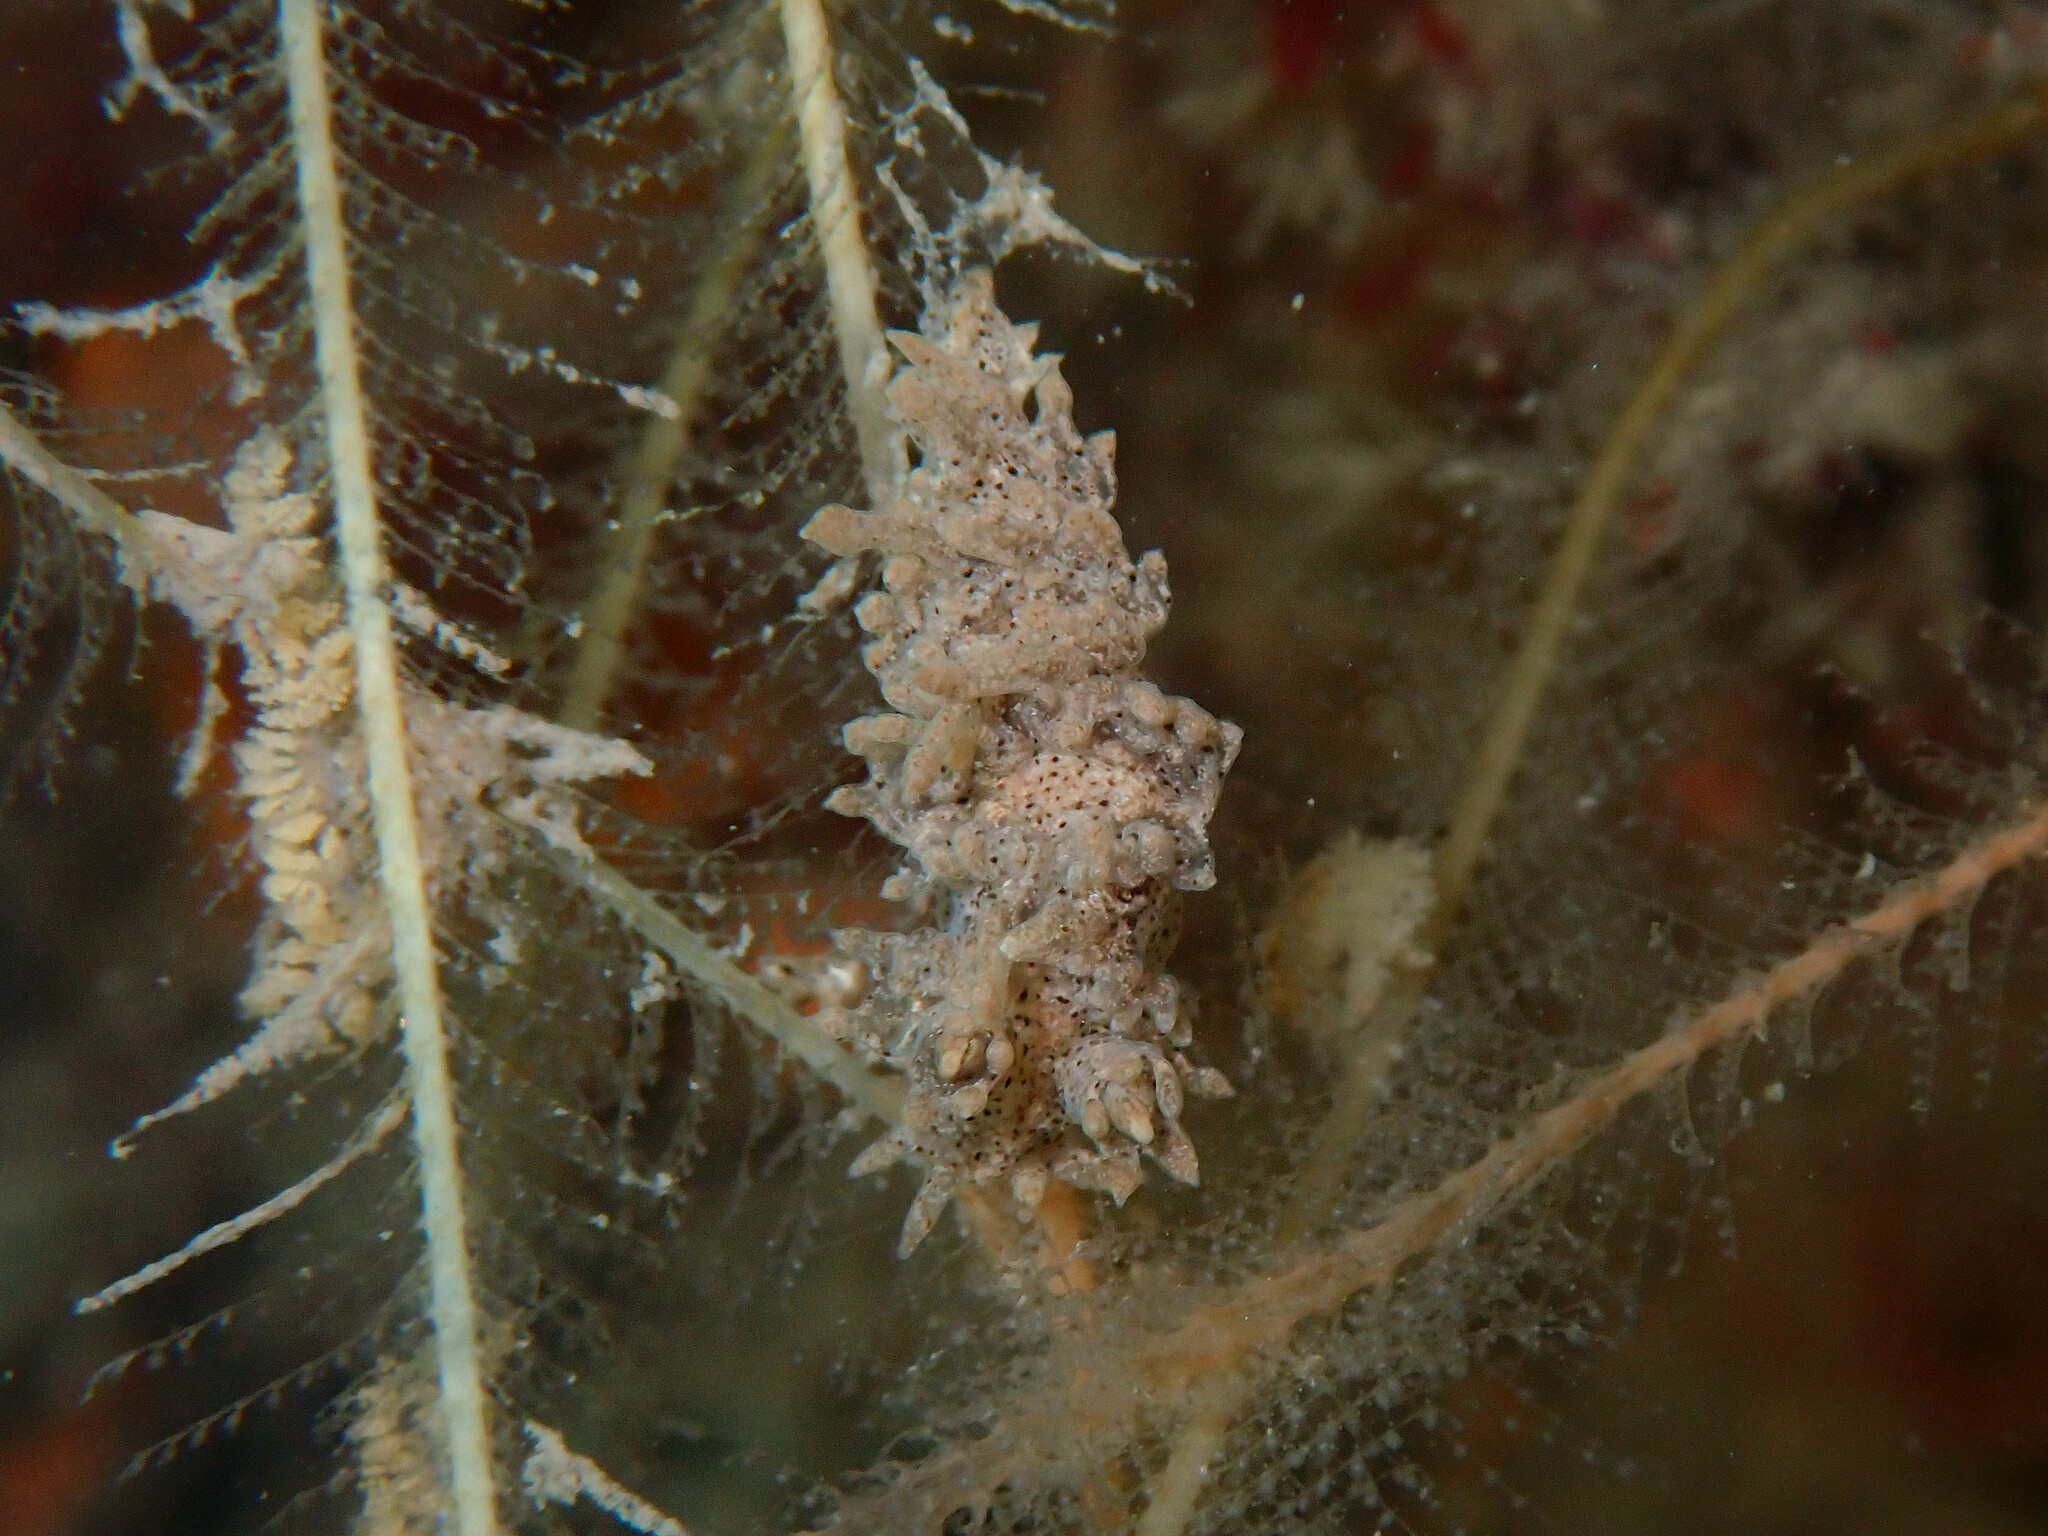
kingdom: Animalia
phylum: Mollusca
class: Gastropoda
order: Nudibranchia
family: Lomanotidae
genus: Lomanotus
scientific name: Lomanotus marmoratus
